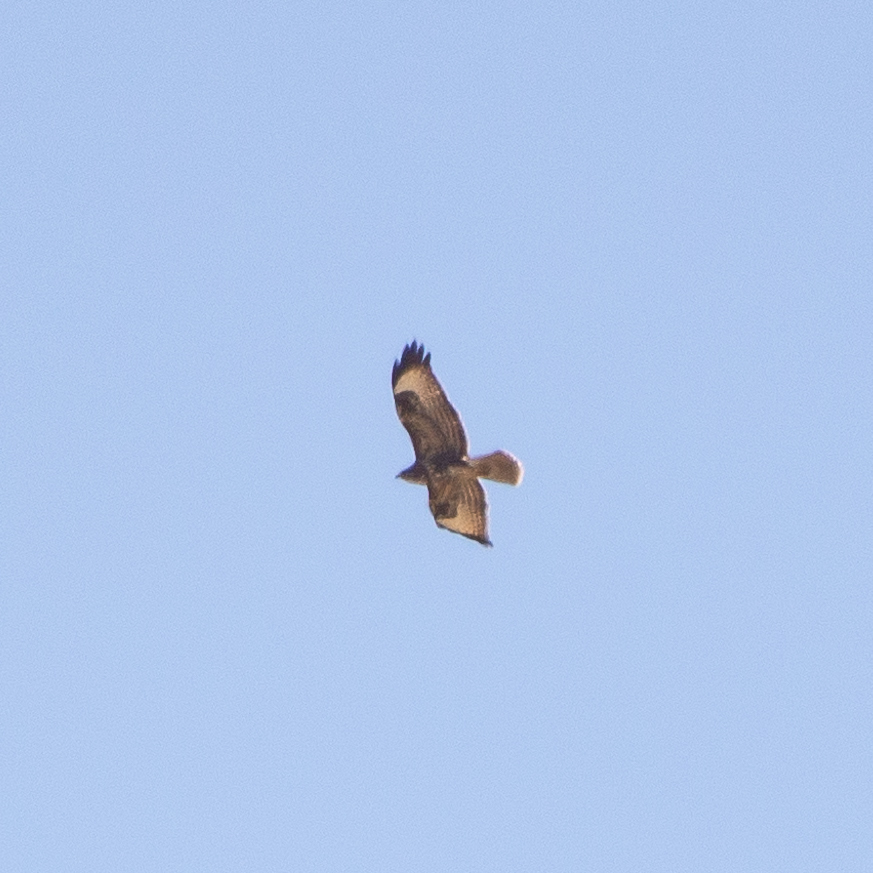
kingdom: Animalia
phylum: Chordata
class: Aves
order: Accipitriformes
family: Accipitridae
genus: Buteo
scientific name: Buteo buteo
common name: Common buzzard
